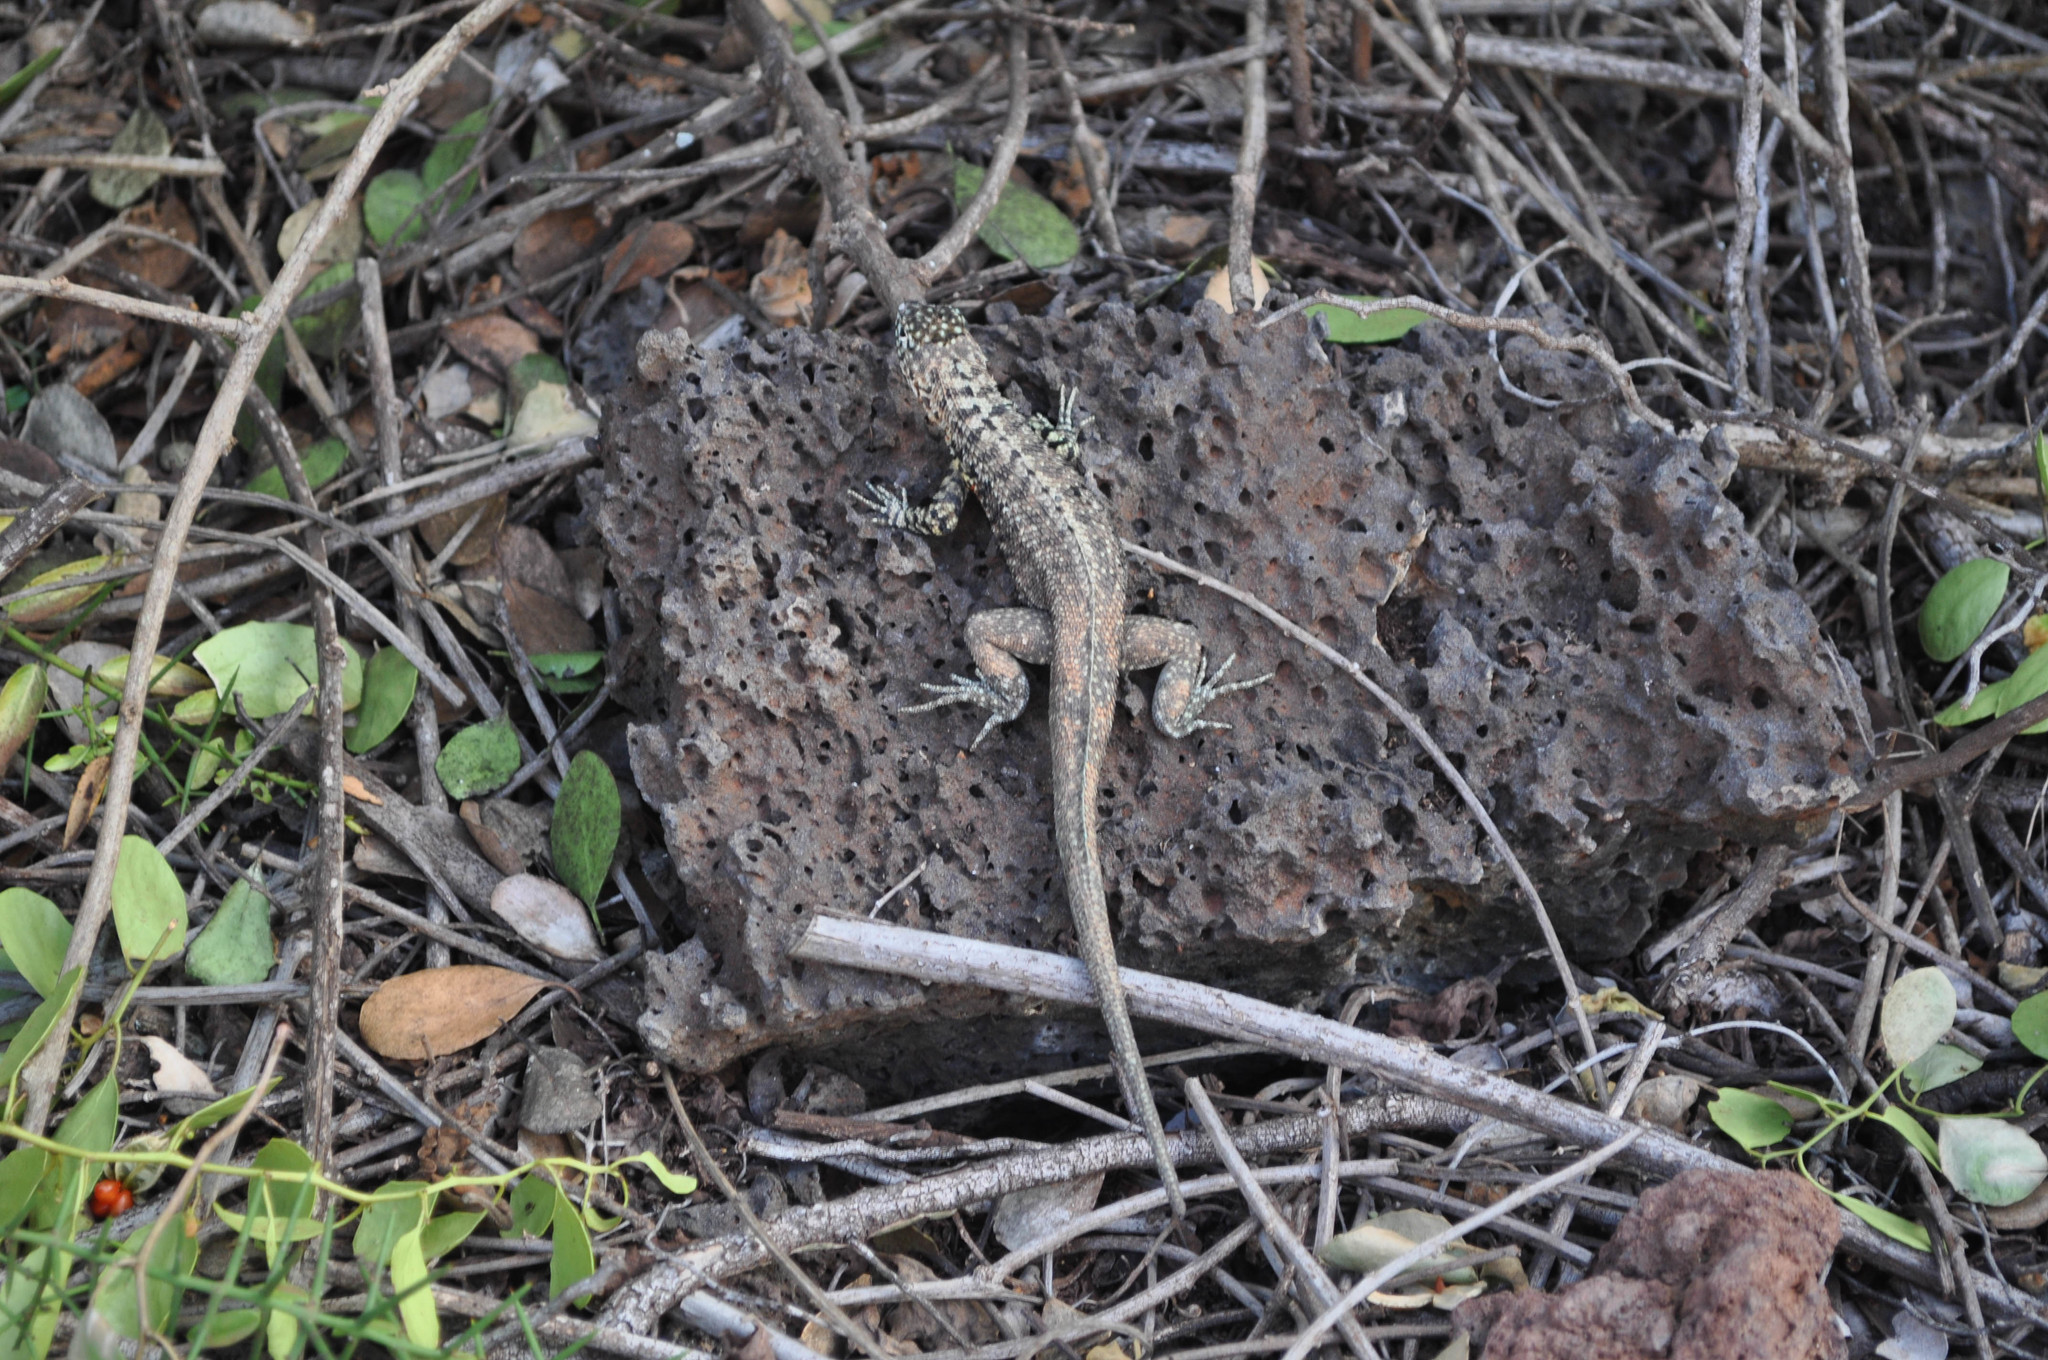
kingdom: Animalia
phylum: Chordata
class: Squamata
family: Tropiduridae
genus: Microlophus
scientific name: Microlophus indefatigabilis
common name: Galapagos lava lizard
